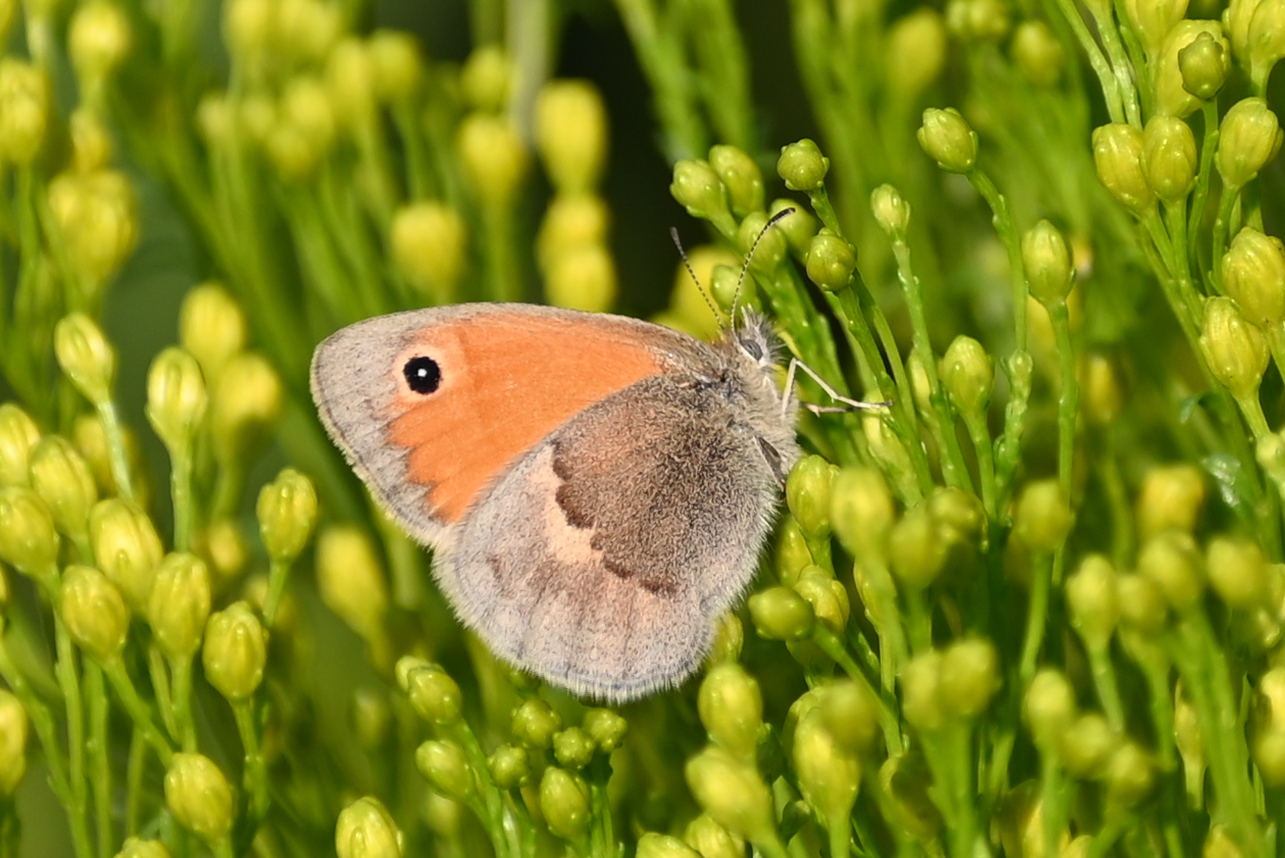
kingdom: Animalia
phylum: Arthropoda
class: Insecta
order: Lepidoptera
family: Nymphalidae
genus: Coenonympha
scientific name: Coenonympha pamphilus
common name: Small heath
